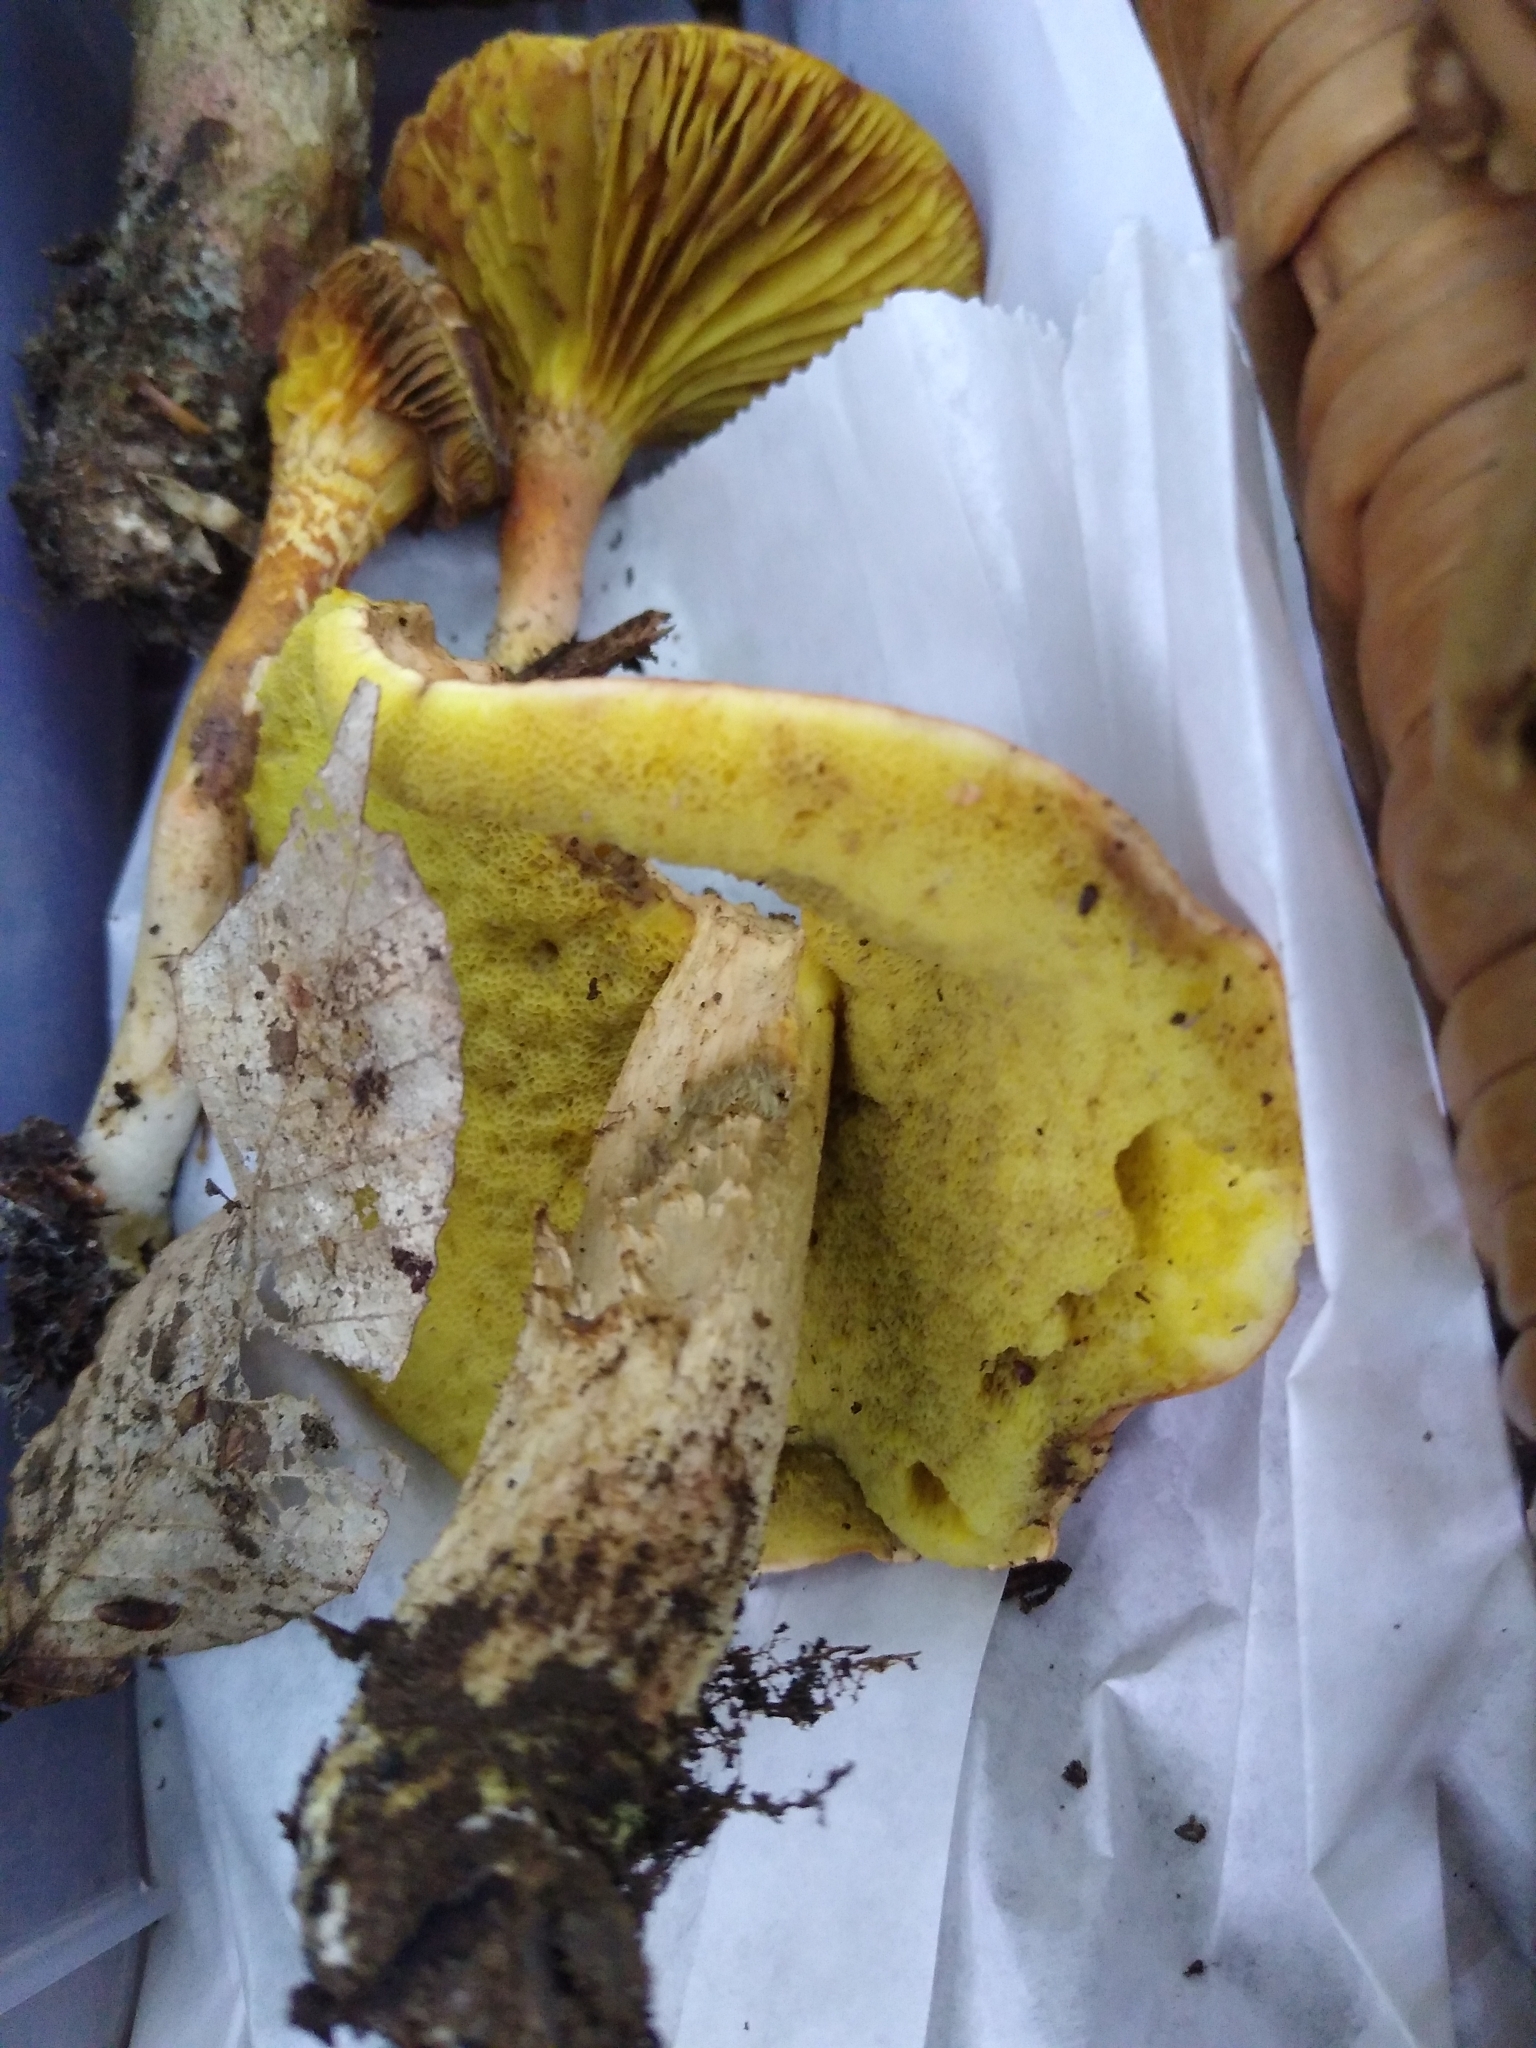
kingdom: Fungi
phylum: Basidiomycota
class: Agaricomycetes
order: Boletales
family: Boletaceae
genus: Hemileccinum
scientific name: Hemileccinum subglabripes
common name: Smoothish-stemmed bolete
